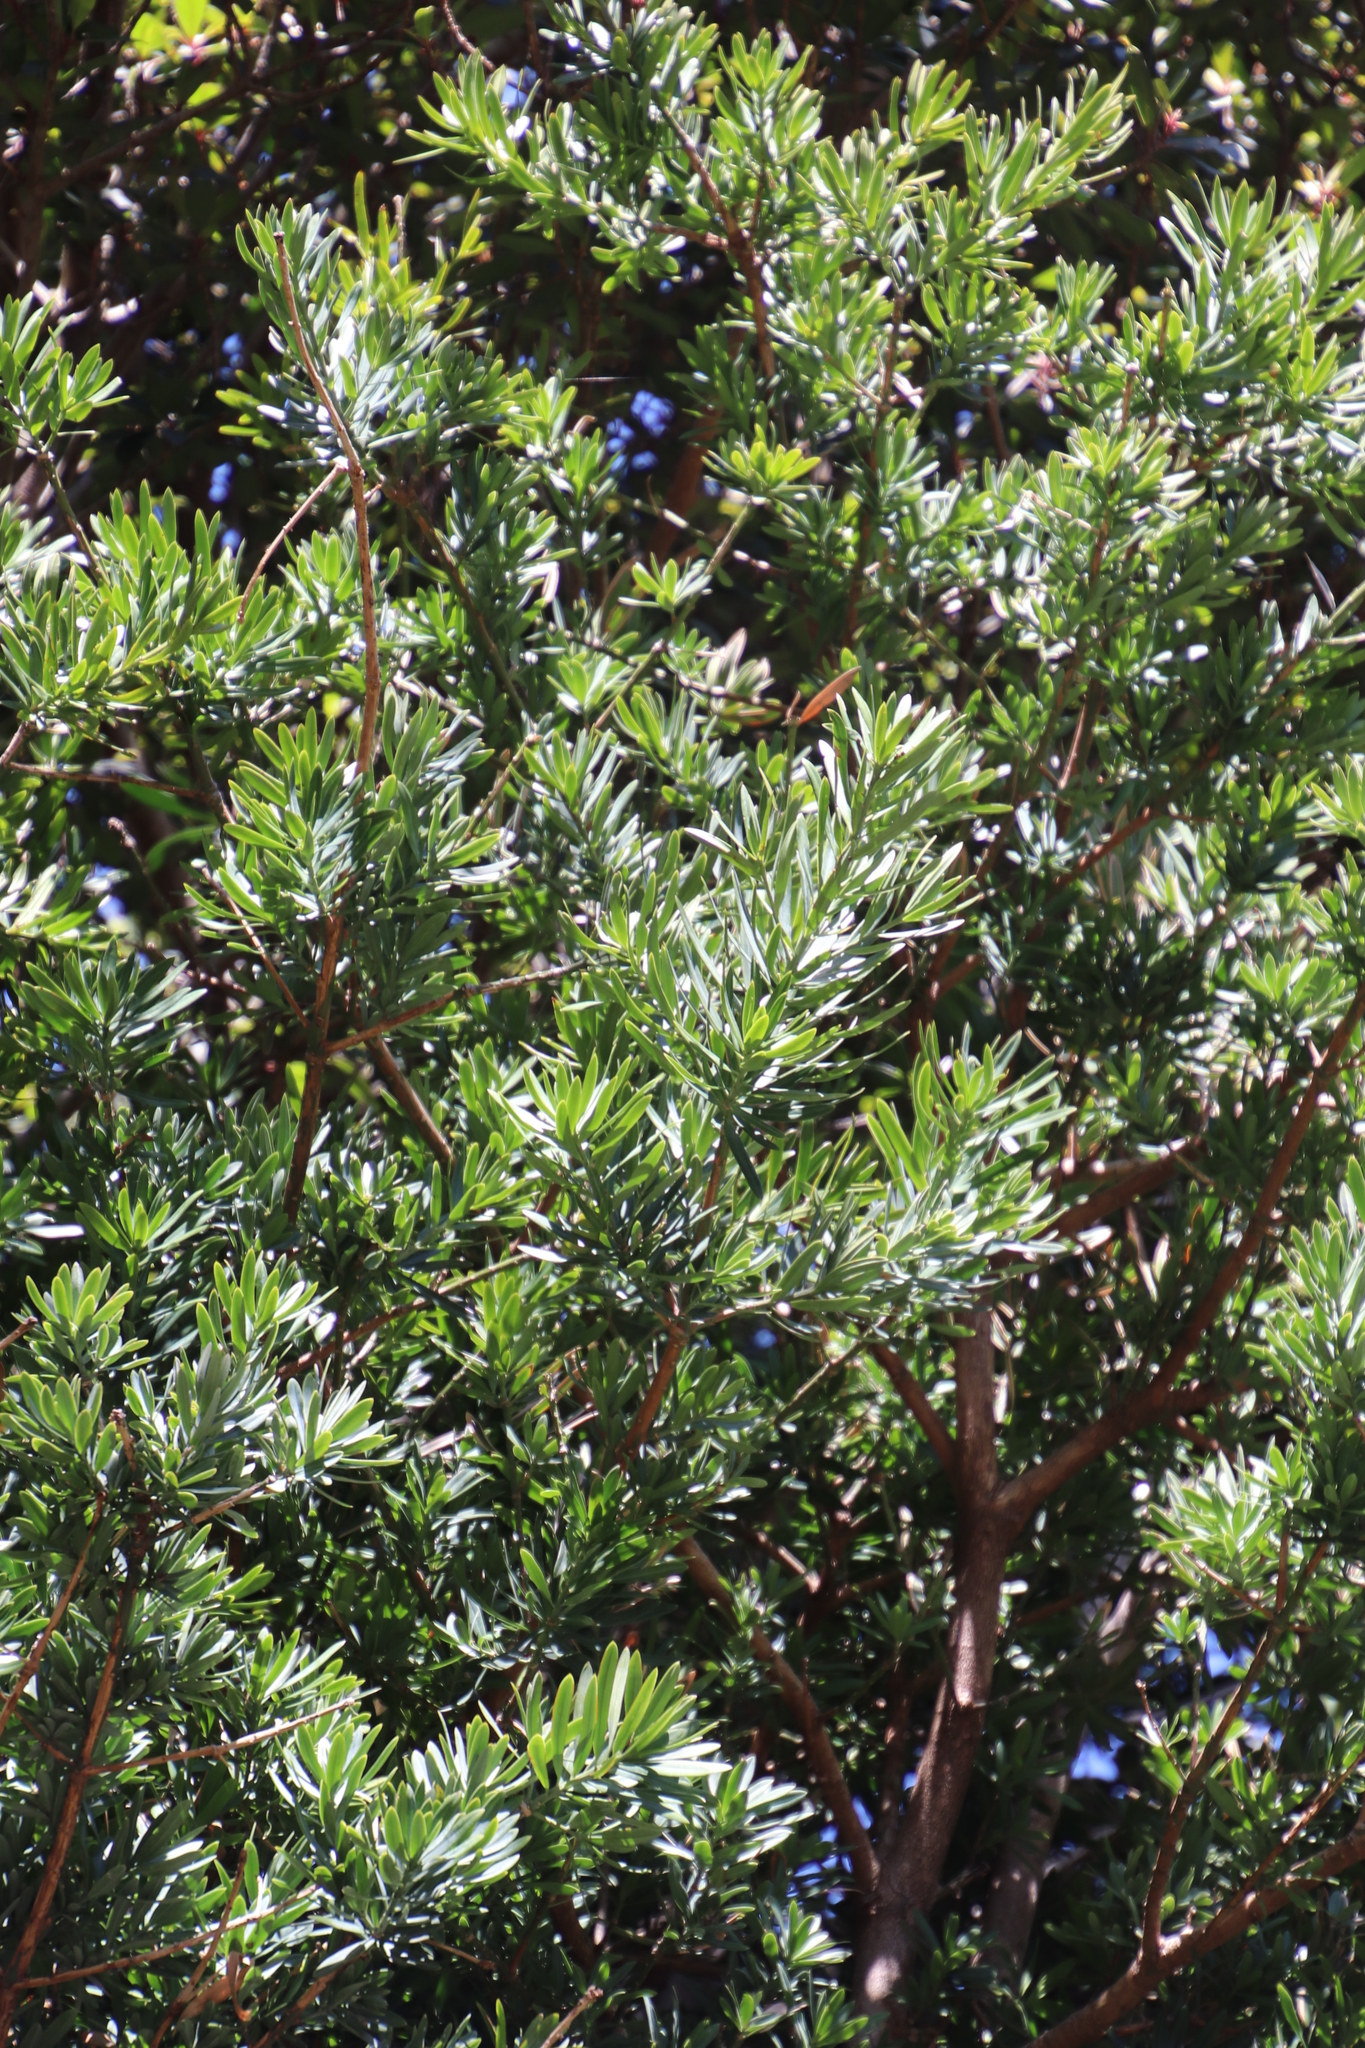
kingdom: Plantae
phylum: Tracheophyta
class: Pinopsida
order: Pinales
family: Podocarpaceae
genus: Podocarpus
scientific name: Podocarpus latifolius
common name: True yellowwood
